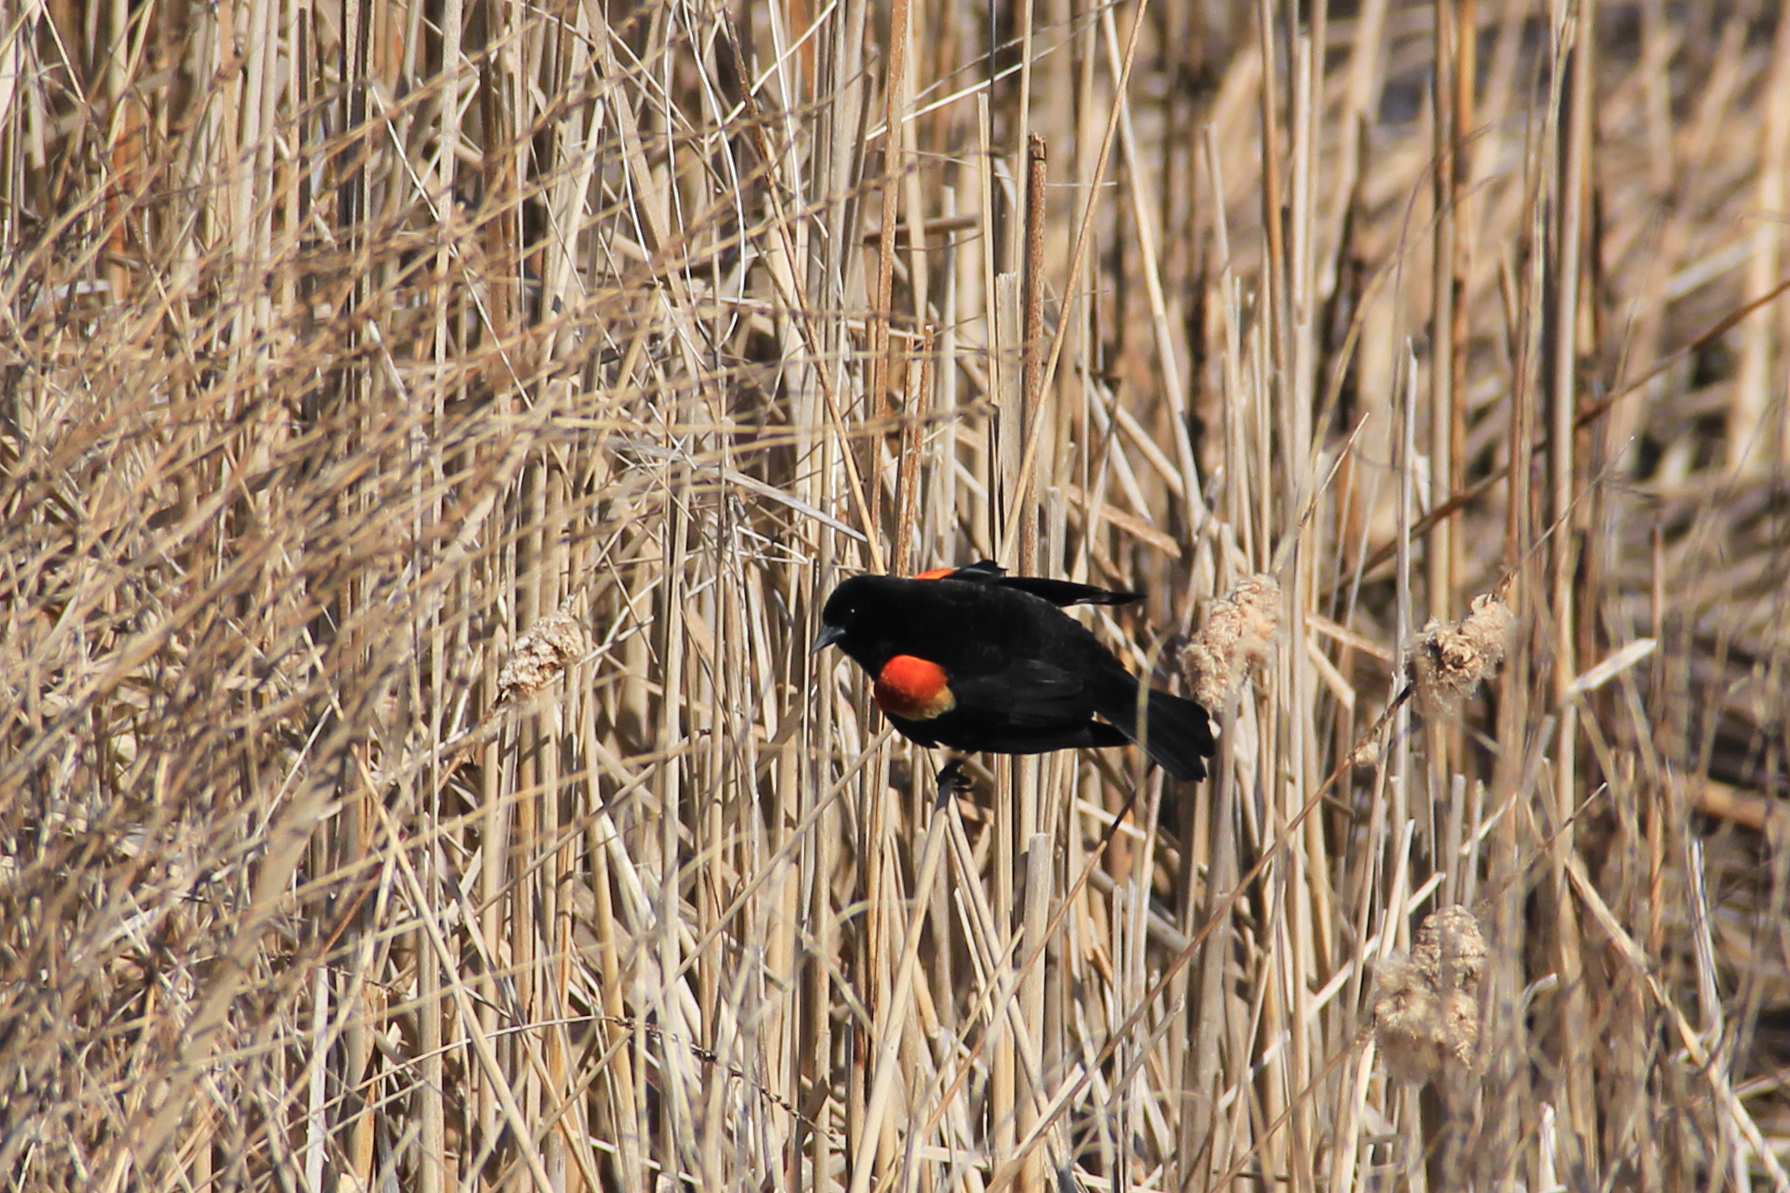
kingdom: Animalia
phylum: Chordata
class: Aves
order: Passeriformes
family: Icteridae
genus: Agelaius
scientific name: Agelaius phoeniceus
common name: Red-winged blackbird
